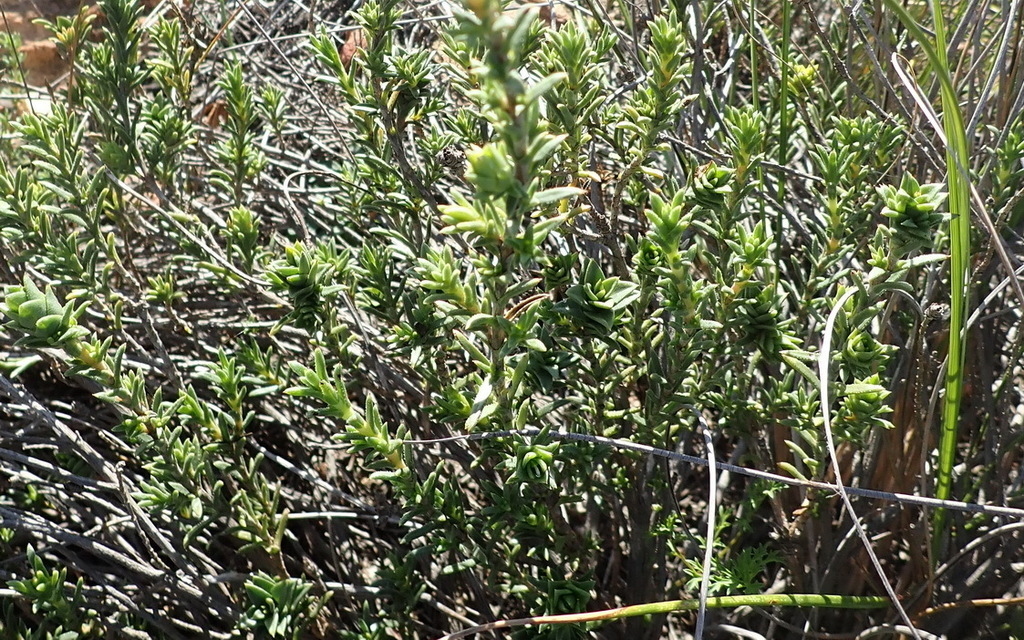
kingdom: Plantae
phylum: Tracheophyta
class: Magnoliopsida
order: Asterales
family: Asteraceae
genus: Pteronia
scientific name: Pteronia elongata
